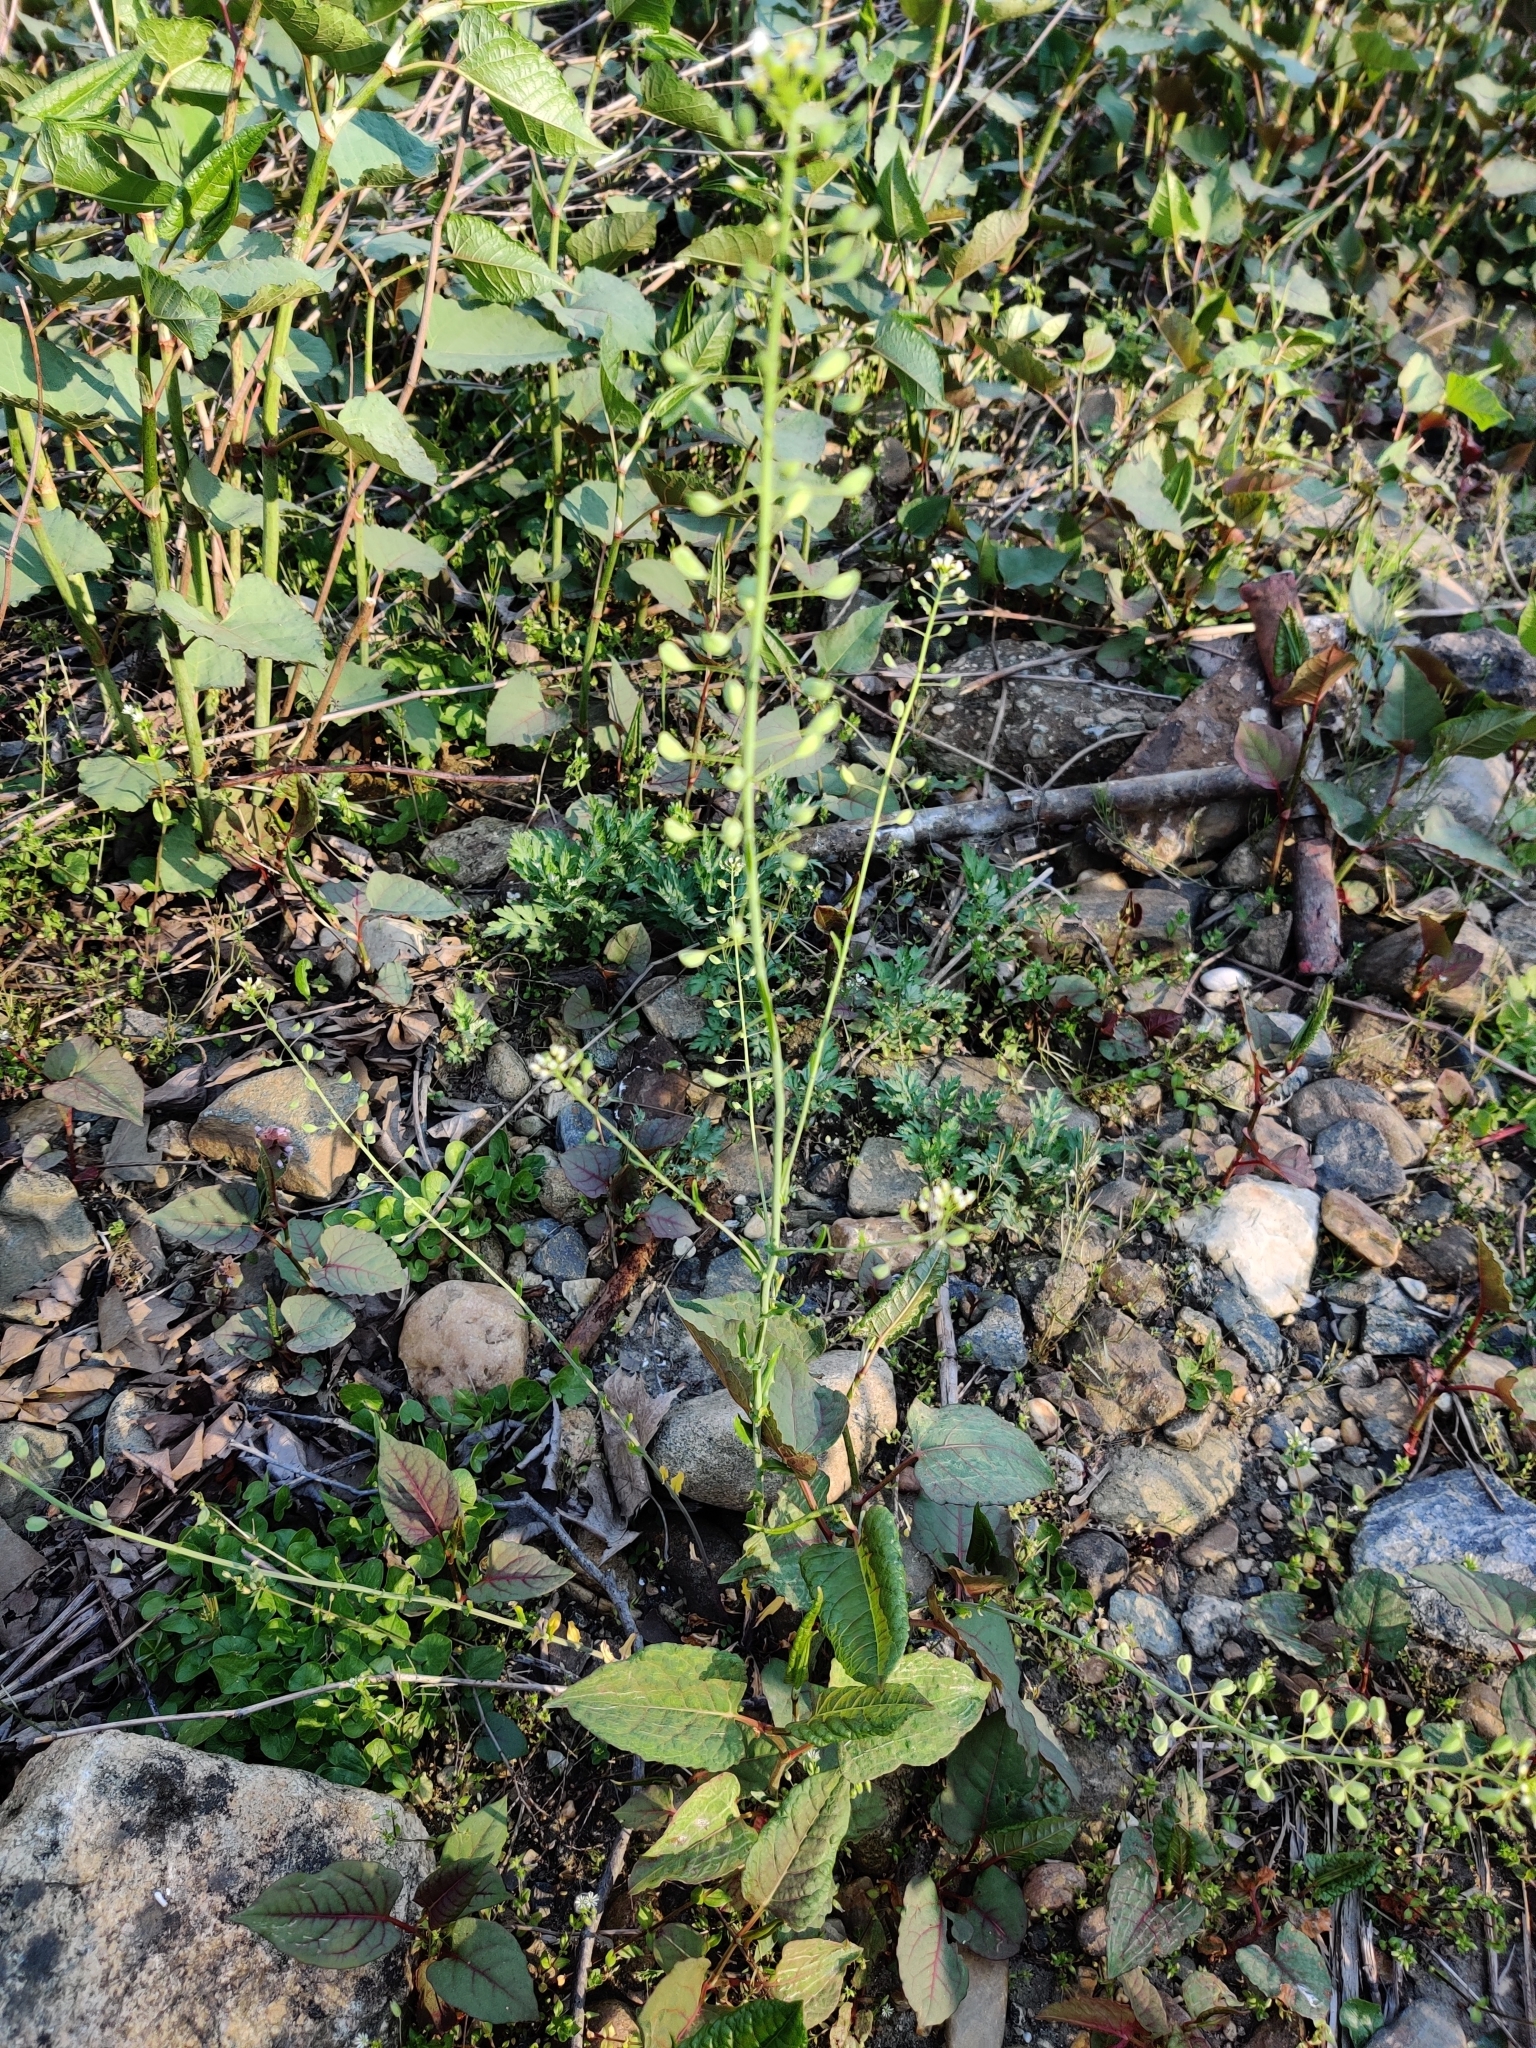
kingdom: Plantae
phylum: Tracheophyta
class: Magnoliopsida
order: Brassicales
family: Brassicaceae
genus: Mummenhoffia
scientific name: Mummenhoffia alliacea
